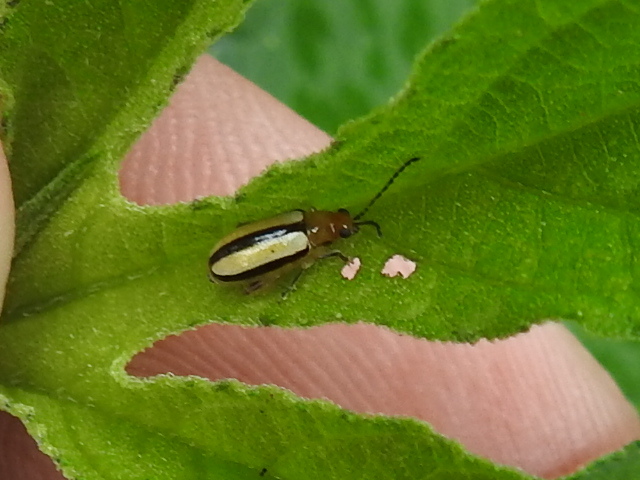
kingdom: Animalia
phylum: Arthropoda
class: Insecta
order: Coleoptera
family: Chrysomelidae
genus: Systena
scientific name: Systena gracilenta
